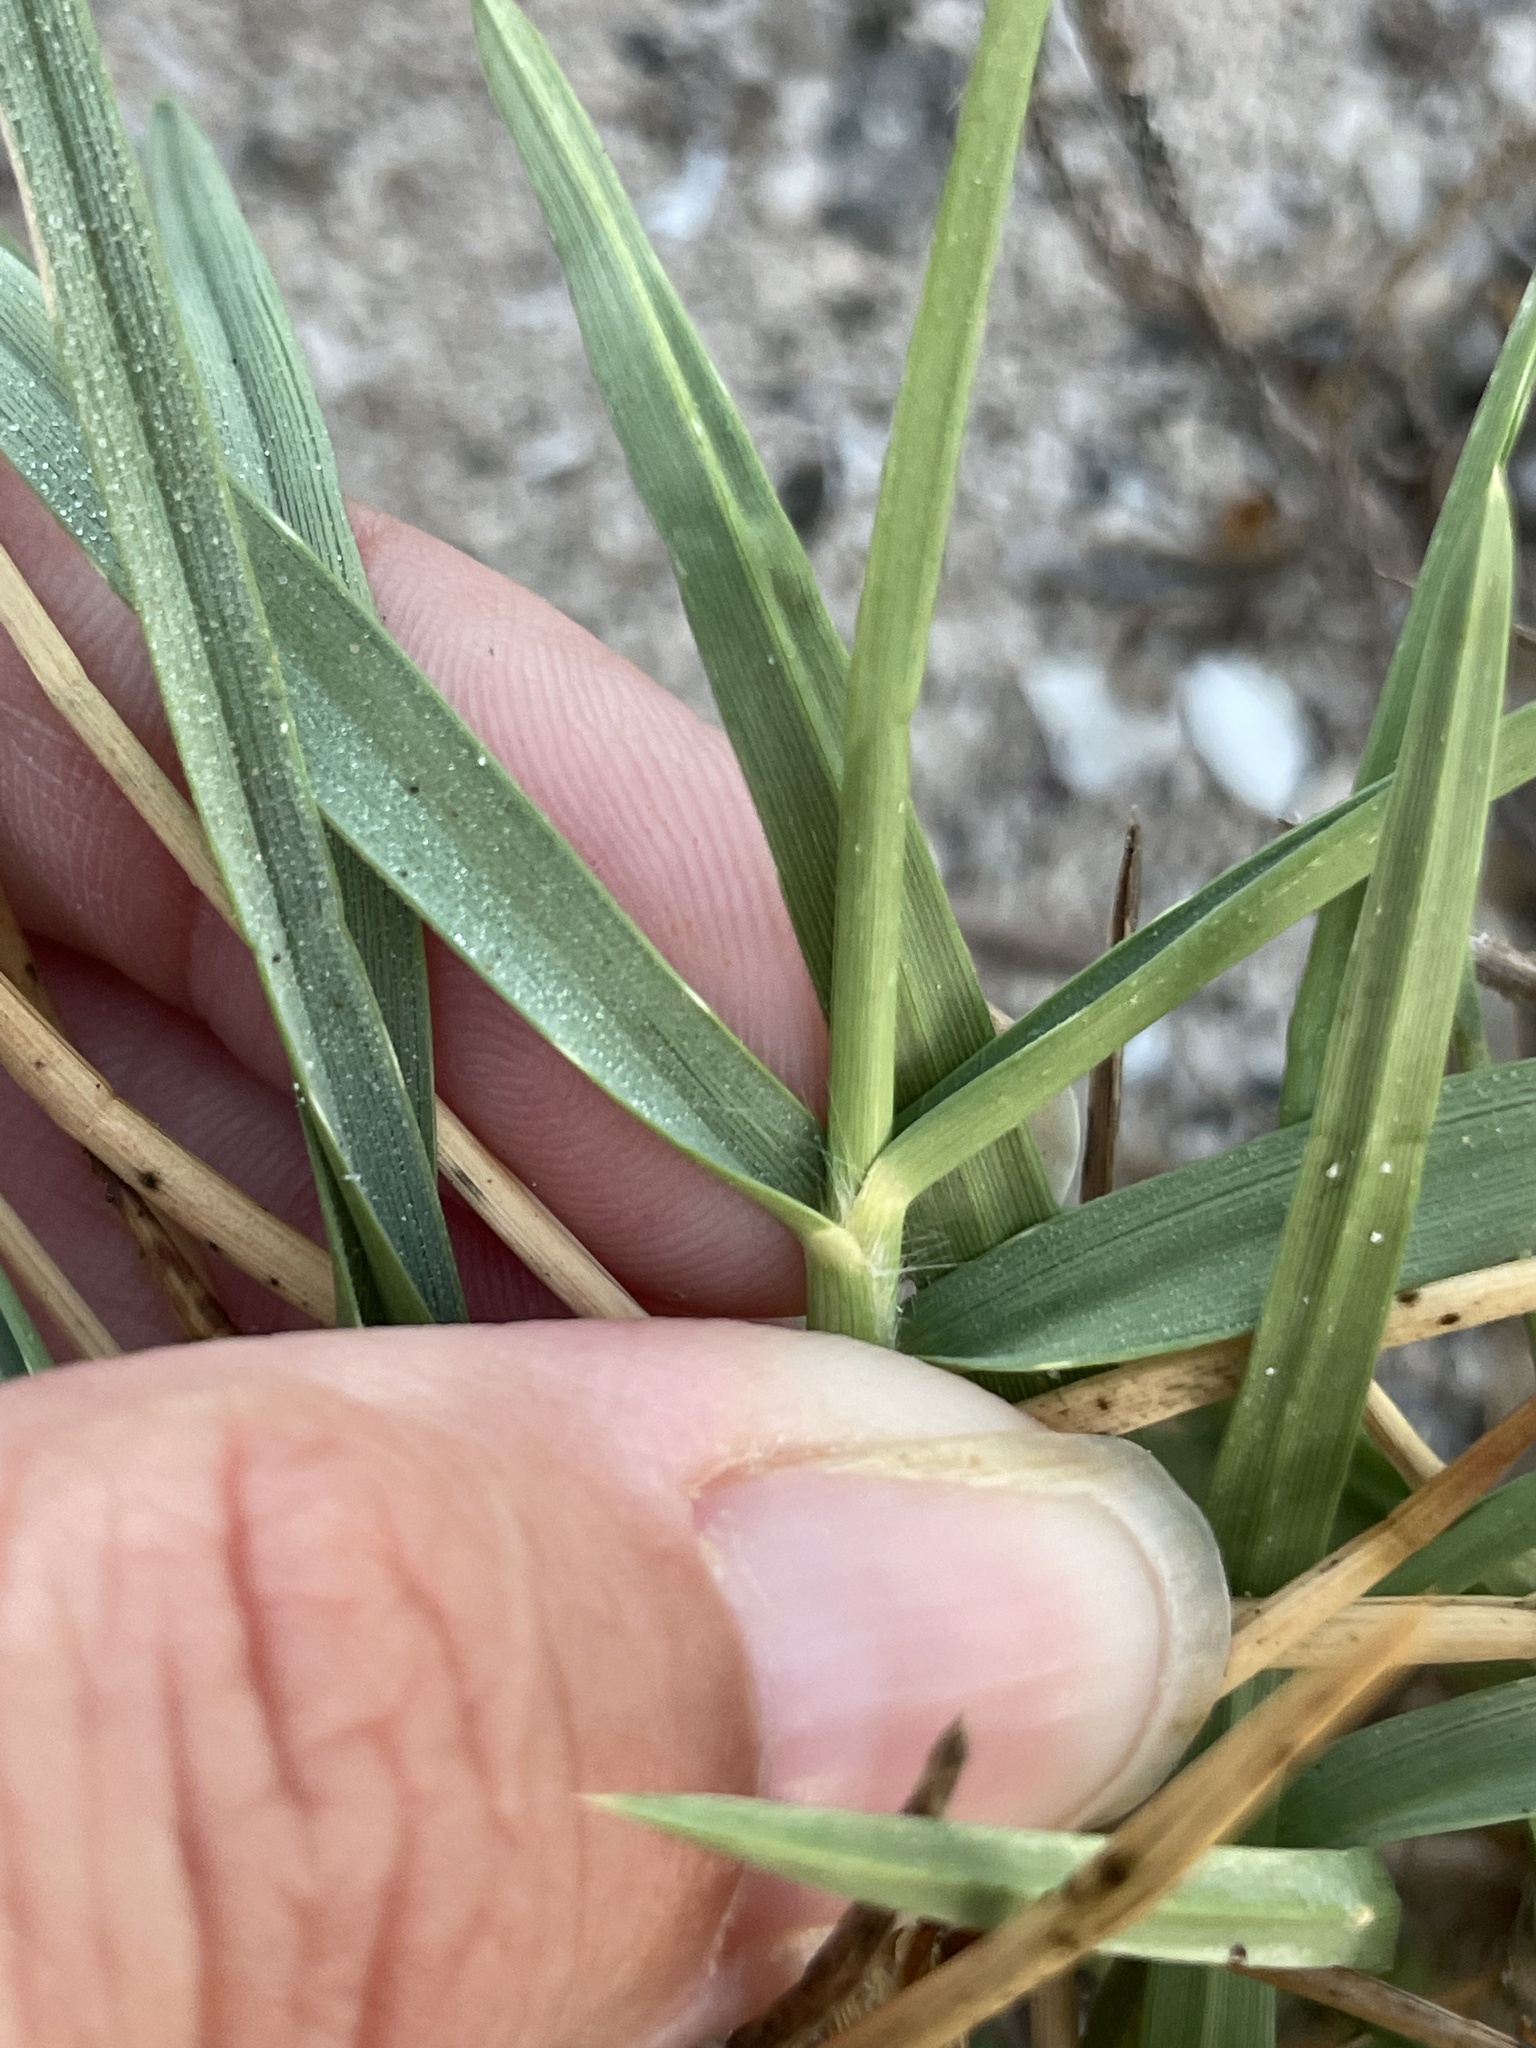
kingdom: Plantae
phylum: Tracheophyta
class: Liliopsida
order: Poales
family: Poaceae
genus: Jouvea
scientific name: Jouvea pilosa
